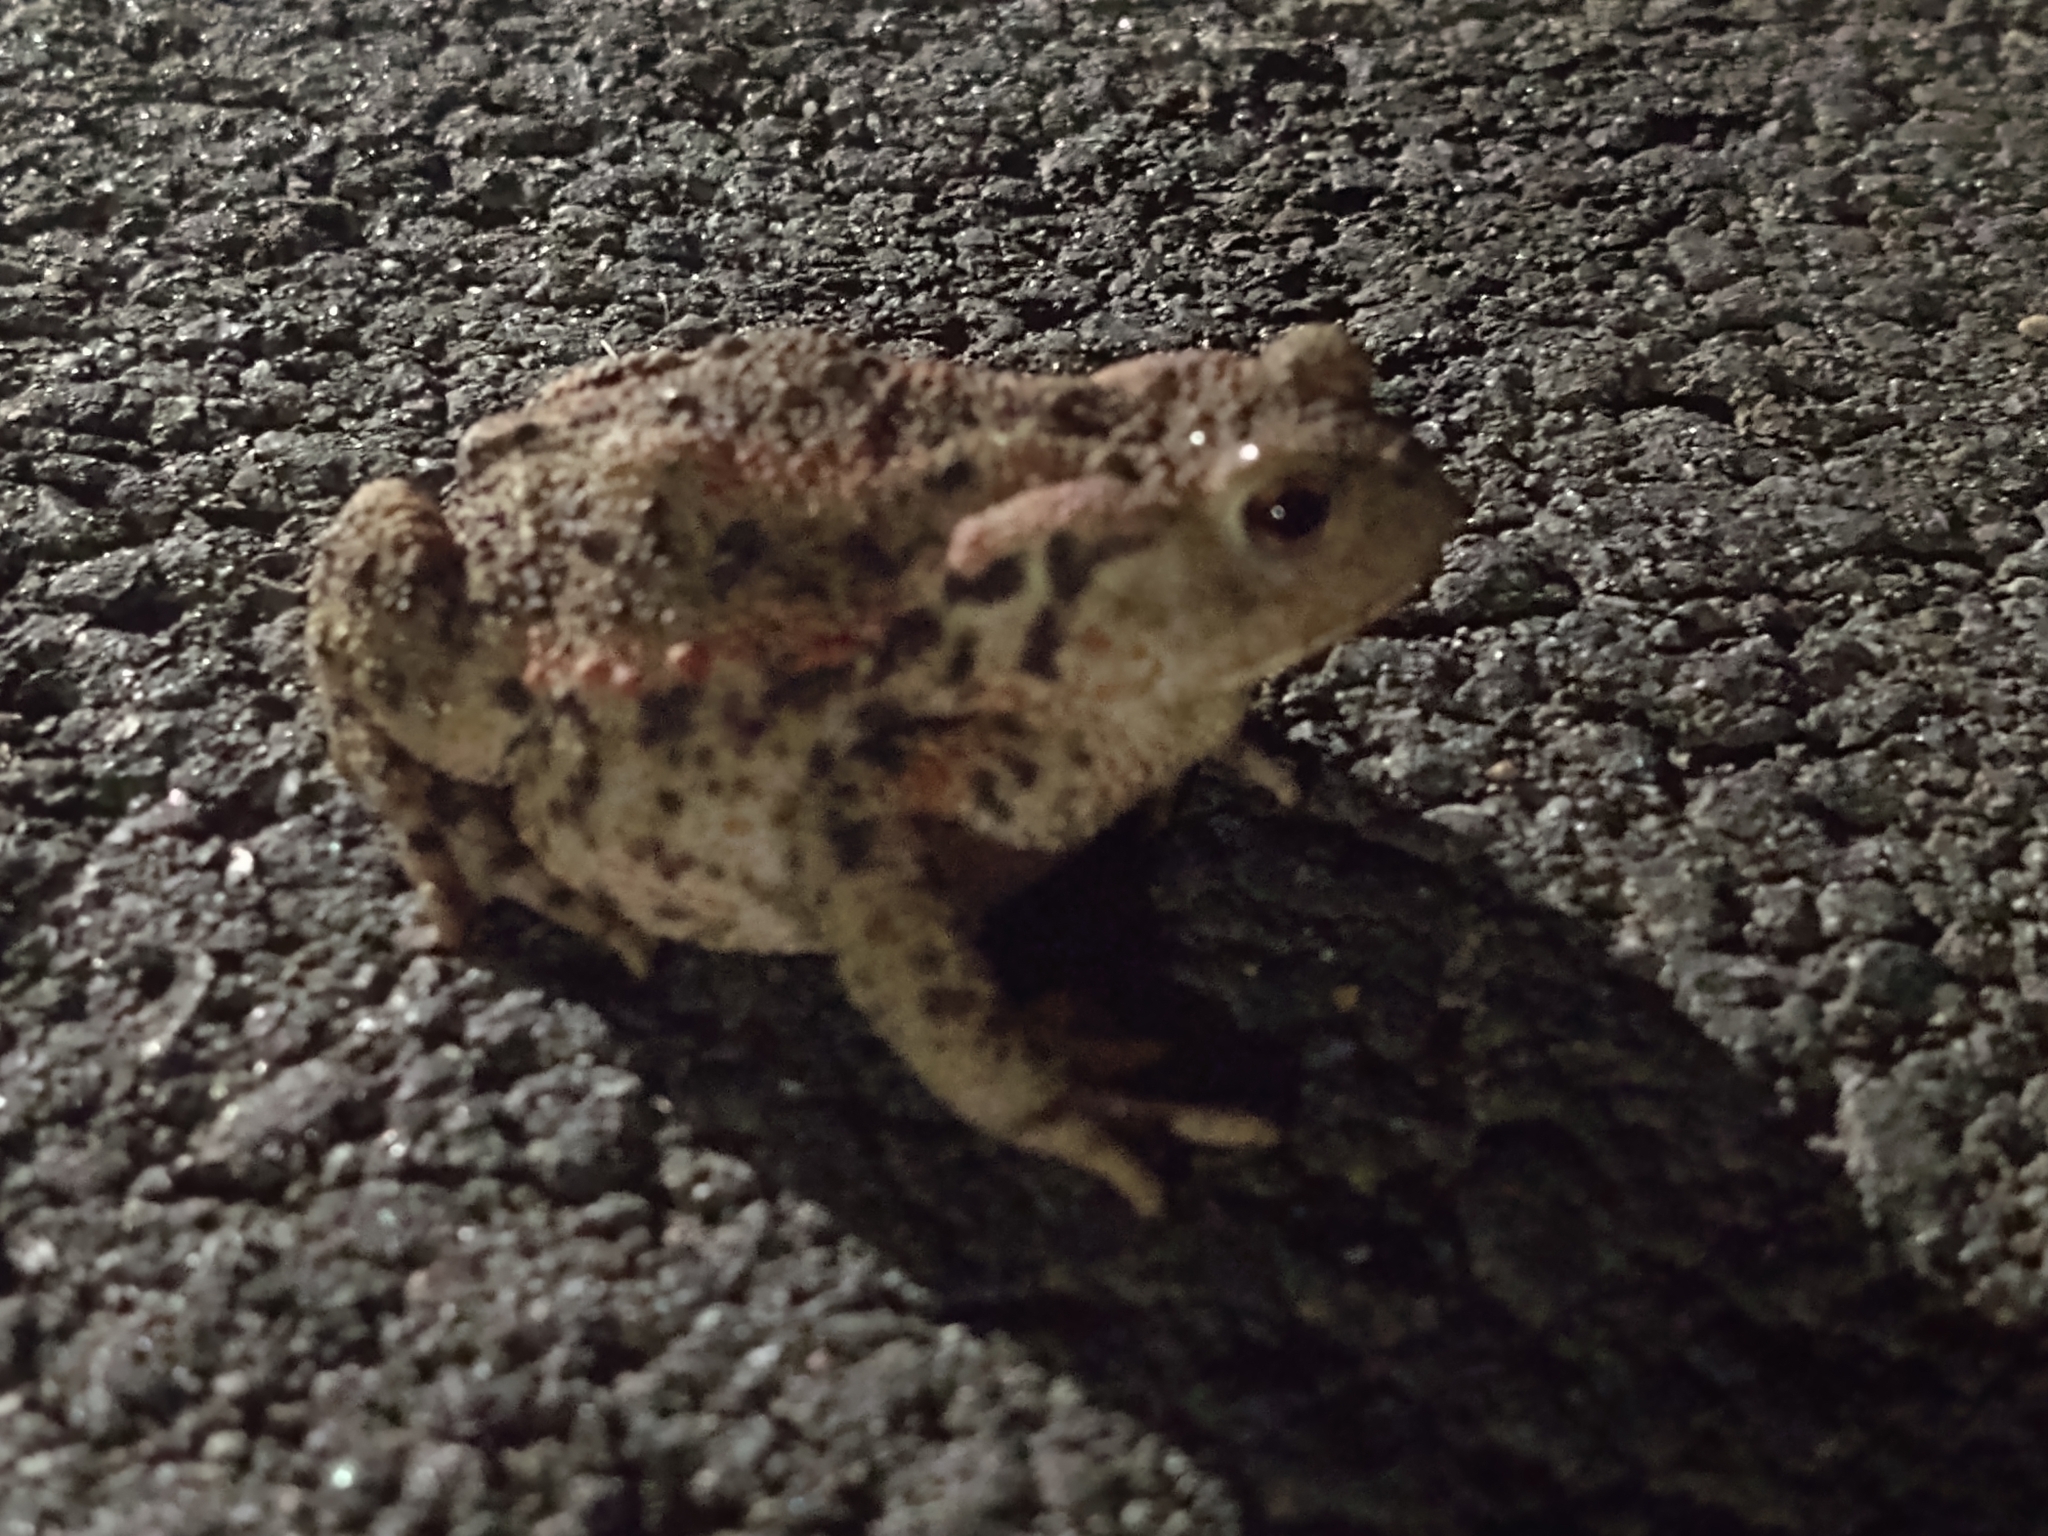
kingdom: Animalia
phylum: Chordata
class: Amphibia
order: Anura
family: Bufonidae
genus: Bufo
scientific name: Bufo bufo
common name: Common toad
